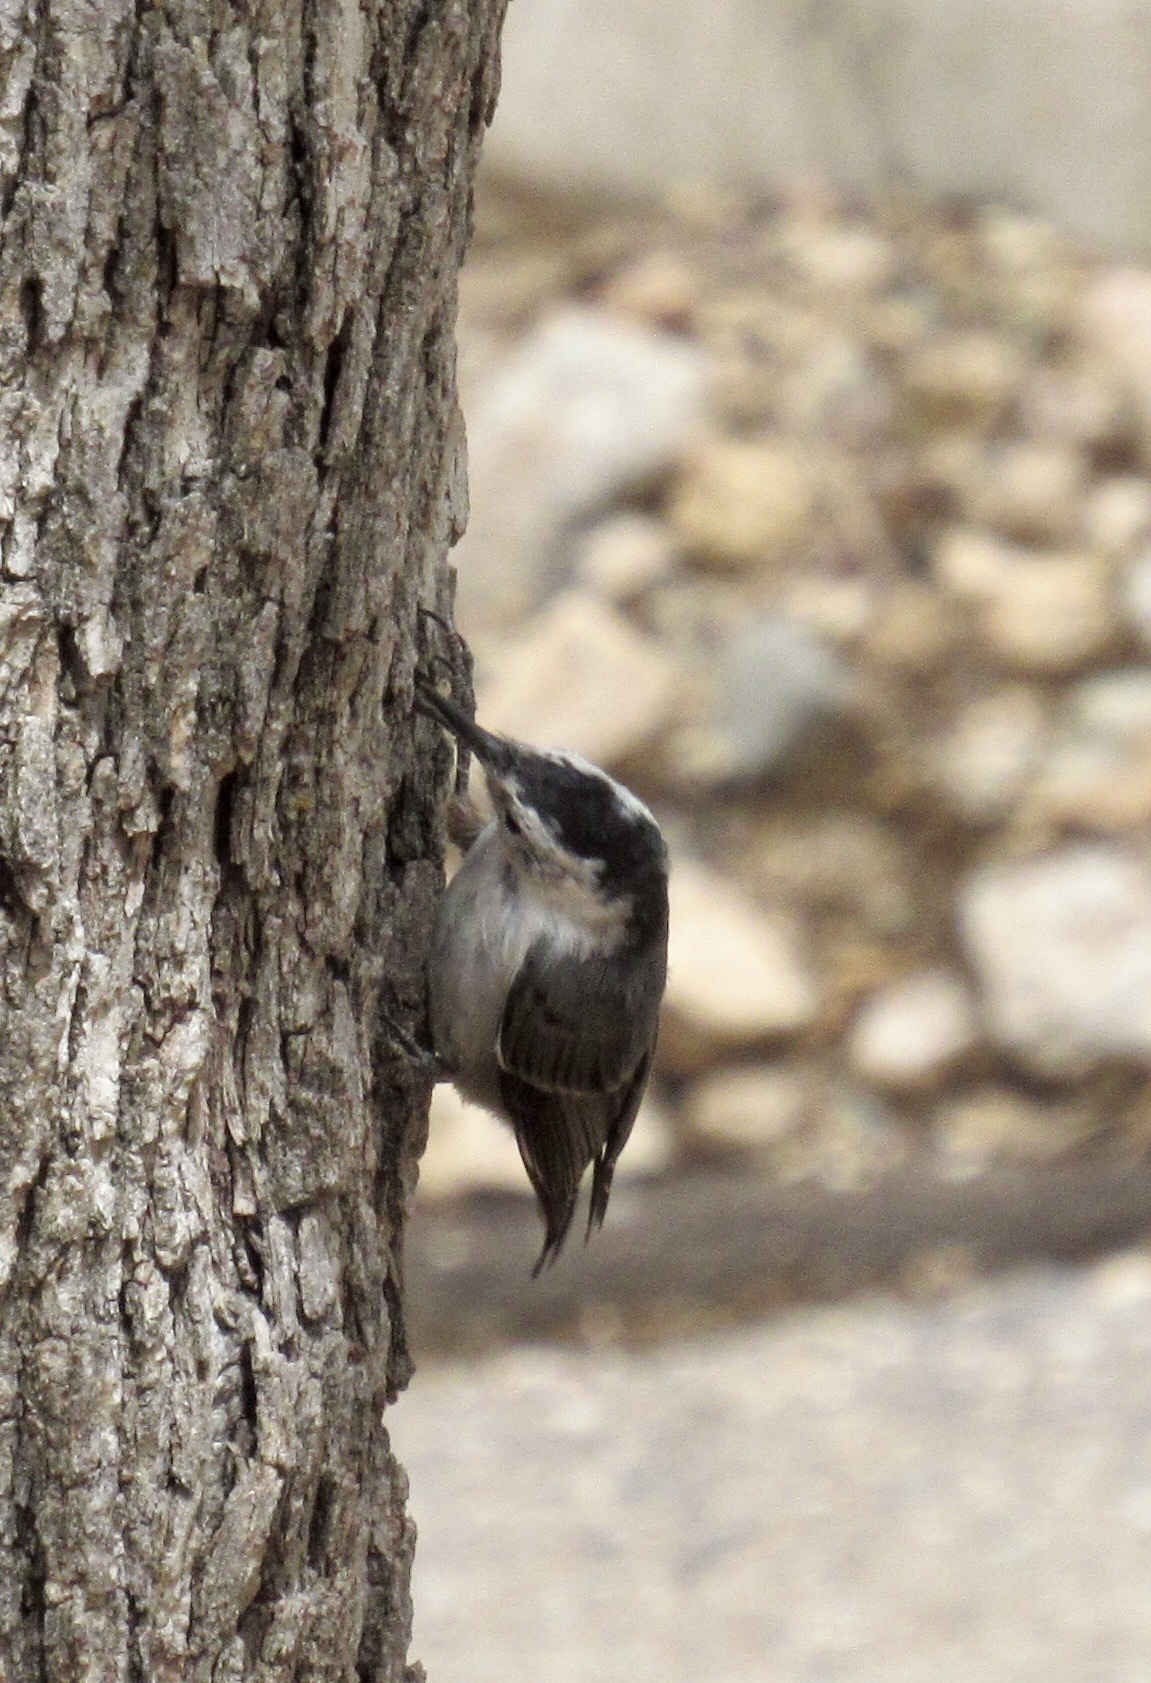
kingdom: Animalia
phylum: Chordata
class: Aves
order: Passeriformes
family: Sittidae
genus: Sitta
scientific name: Sitta carolinensis
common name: White-breasted nuthatch
